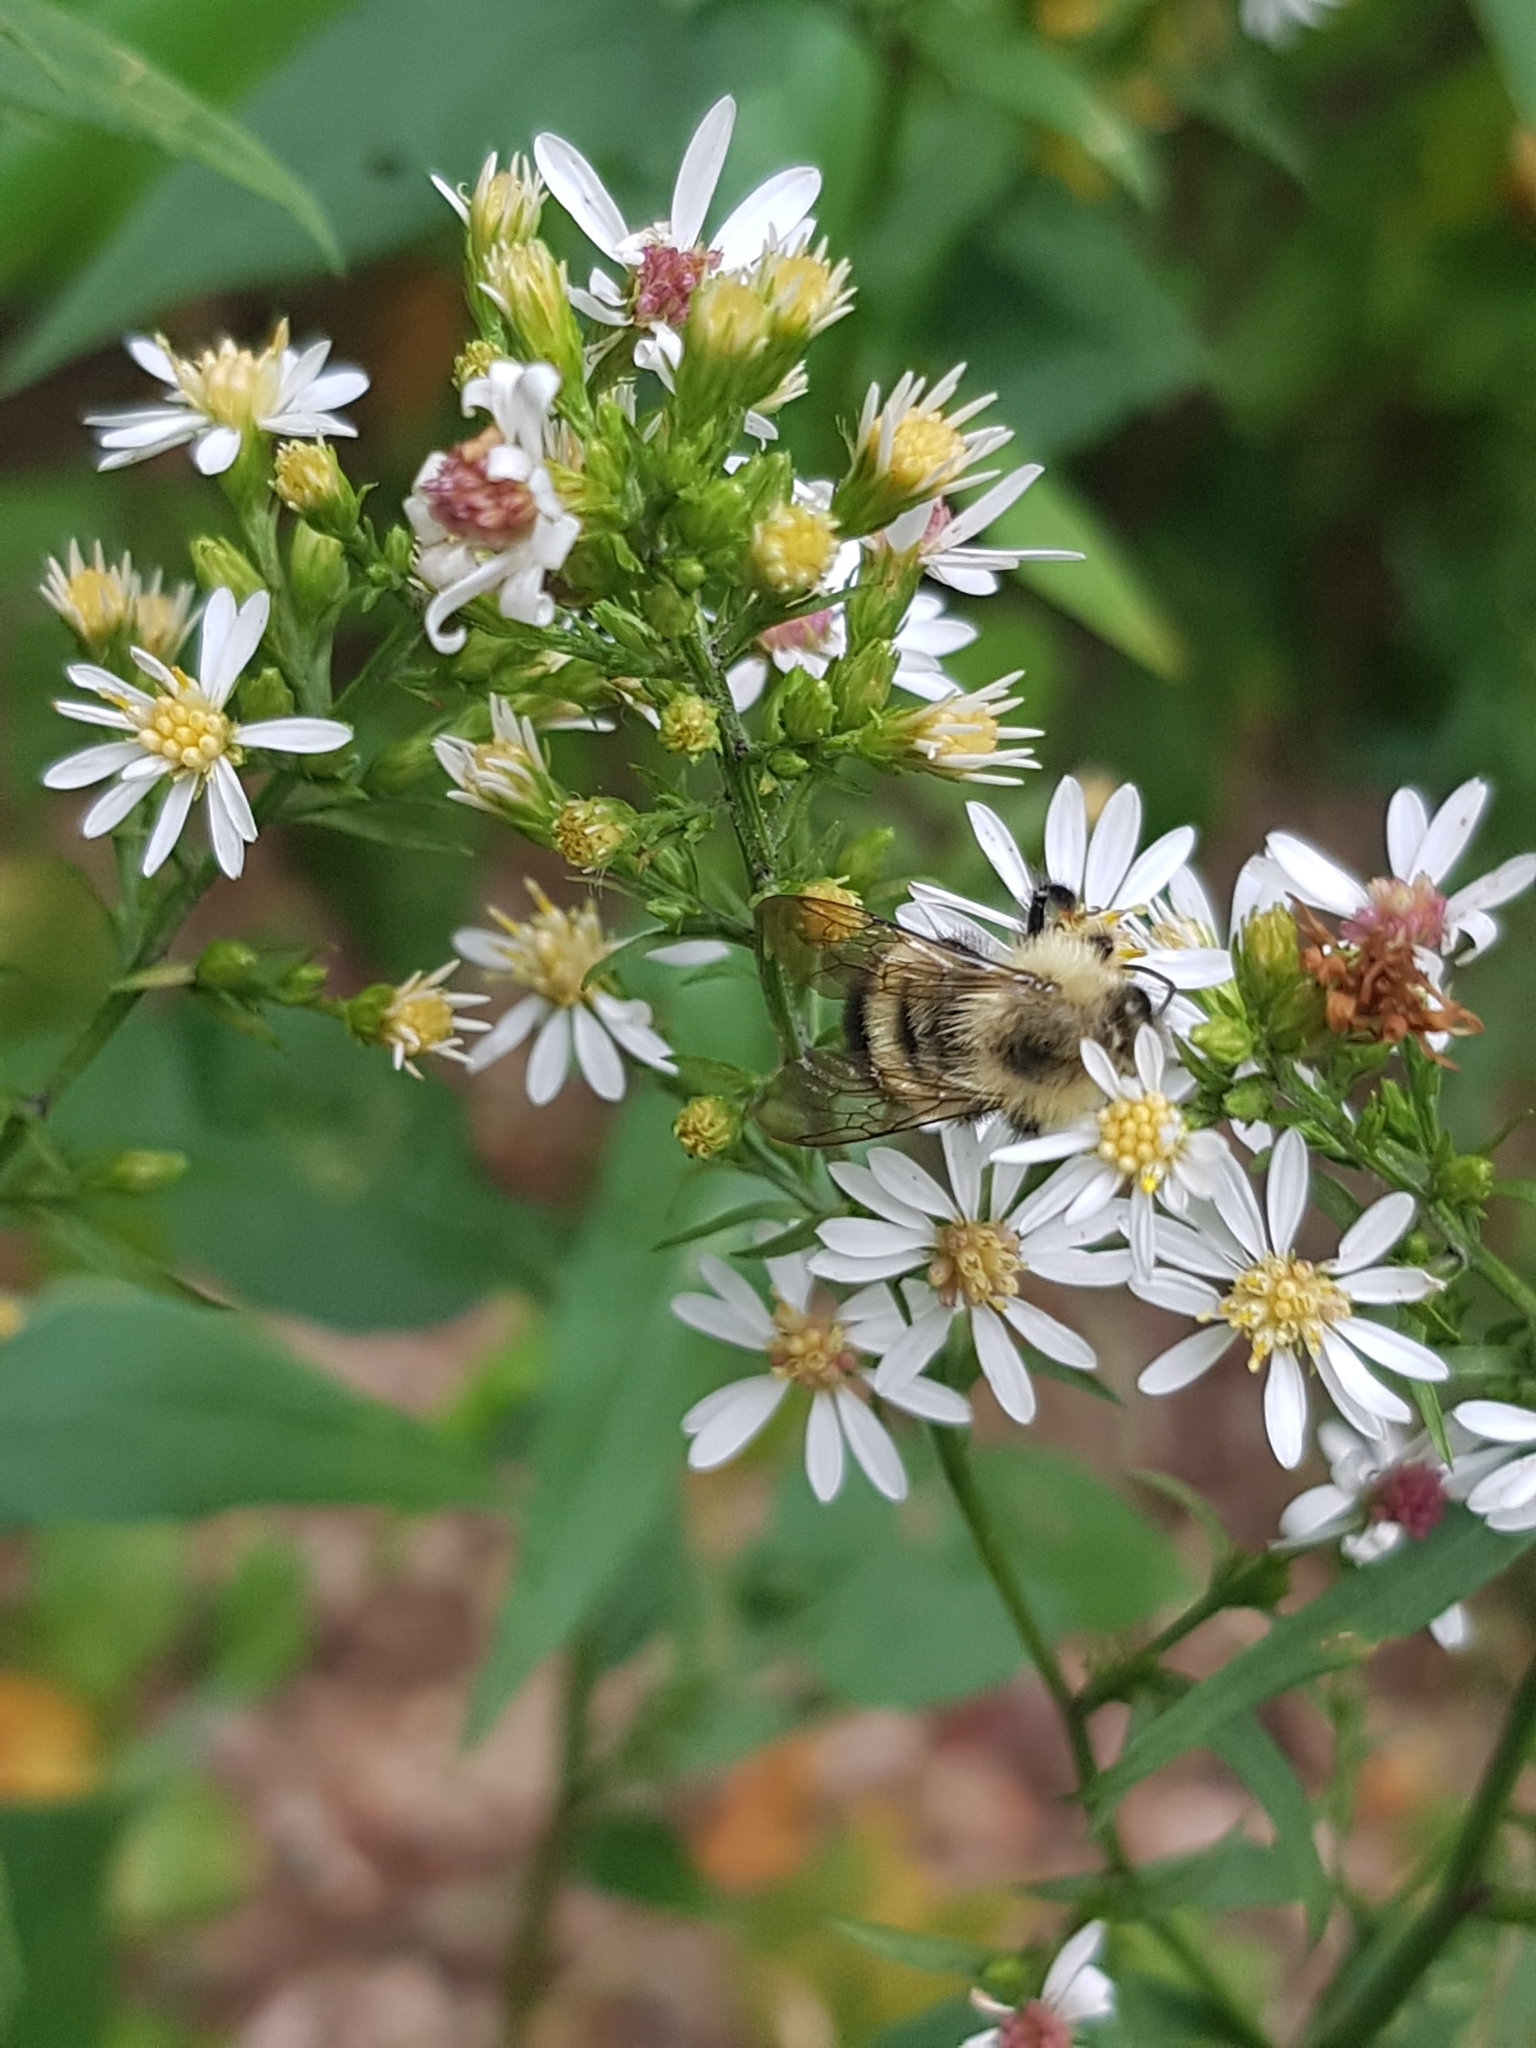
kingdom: Animalia
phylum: Arthropoda
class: Insecta
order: Hymenoptera
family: Apidae
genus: Pyrobombus
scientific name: Pyrobombus
